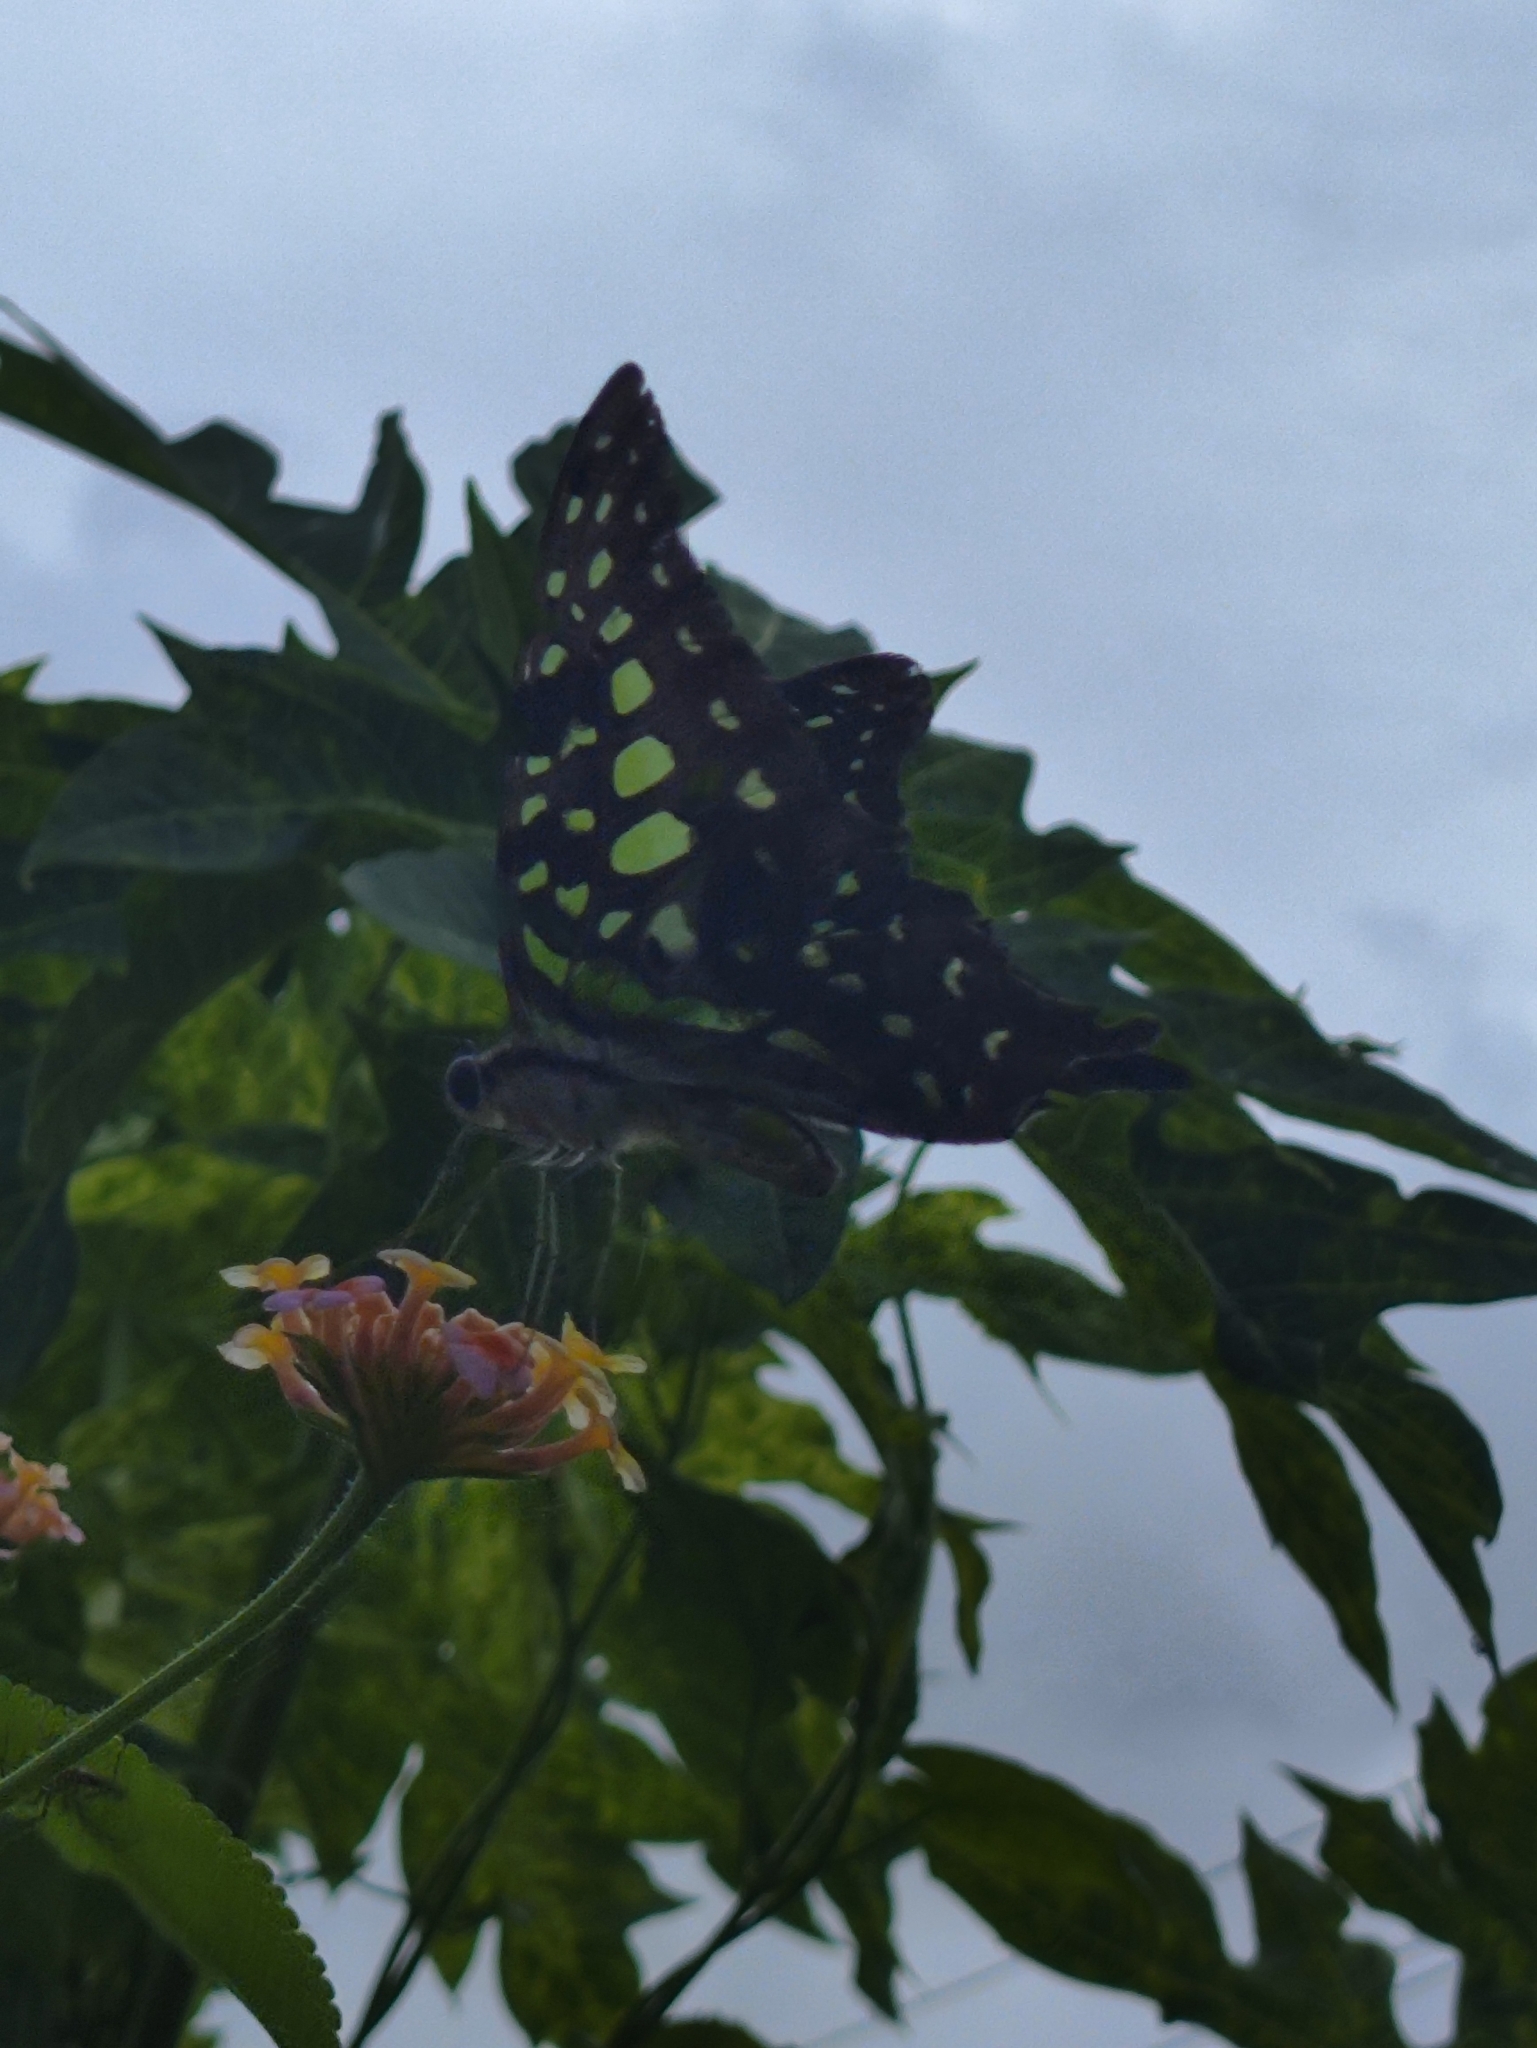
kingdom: Animalia
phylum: Arthropoda
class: Insecta
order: Lepidoptera
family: Papilionidae
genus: Graphium
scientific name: Graphium agamemnon
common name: Tailed jay
